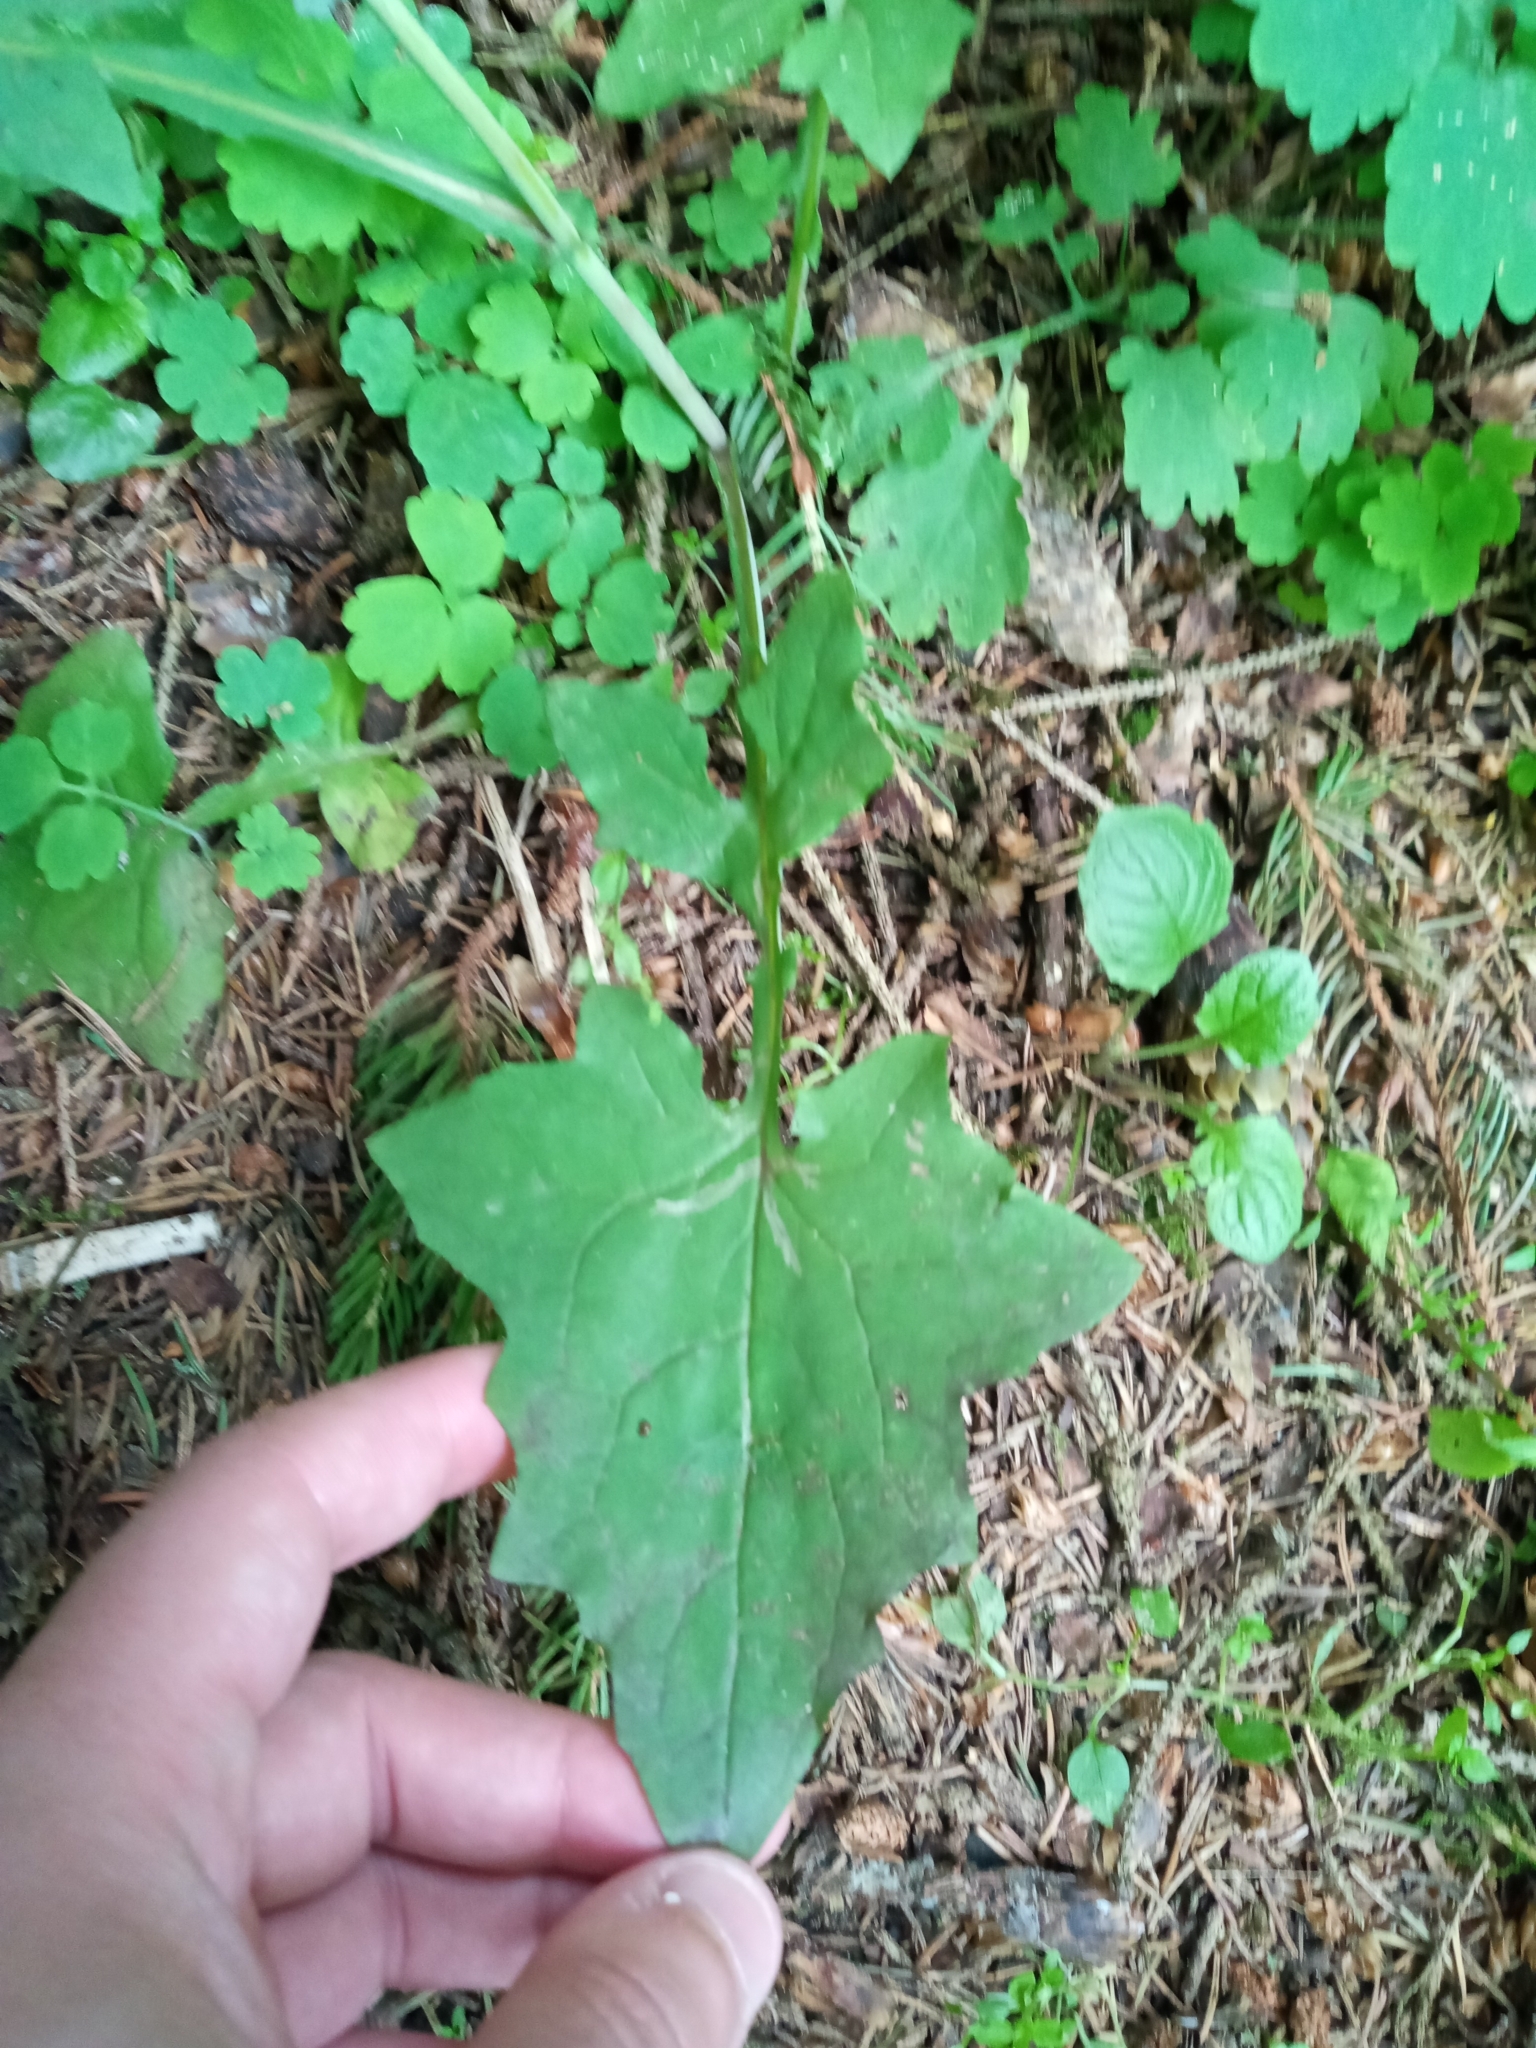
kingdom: Plantae
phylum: Tracheophyta
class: Magnoliopsida
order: Asterales
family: Asteraceae
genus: Mycelis
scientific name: Mycelis muralis
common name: Wall lettuce
